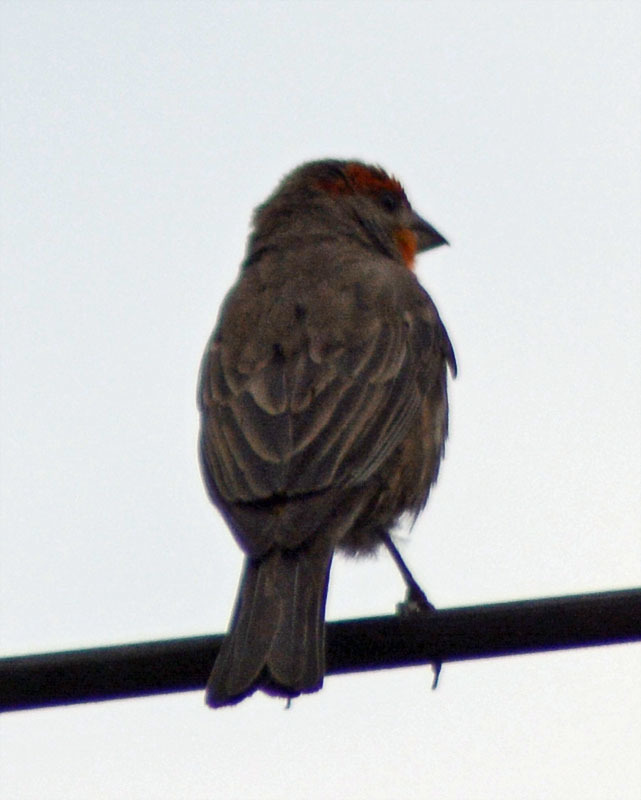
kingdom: Animalia
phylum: Chordata
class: Aves
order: Passeriformes
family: Fringillidae
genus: Haemorhous
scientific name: Haemorhous mexicanus
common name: House finch
